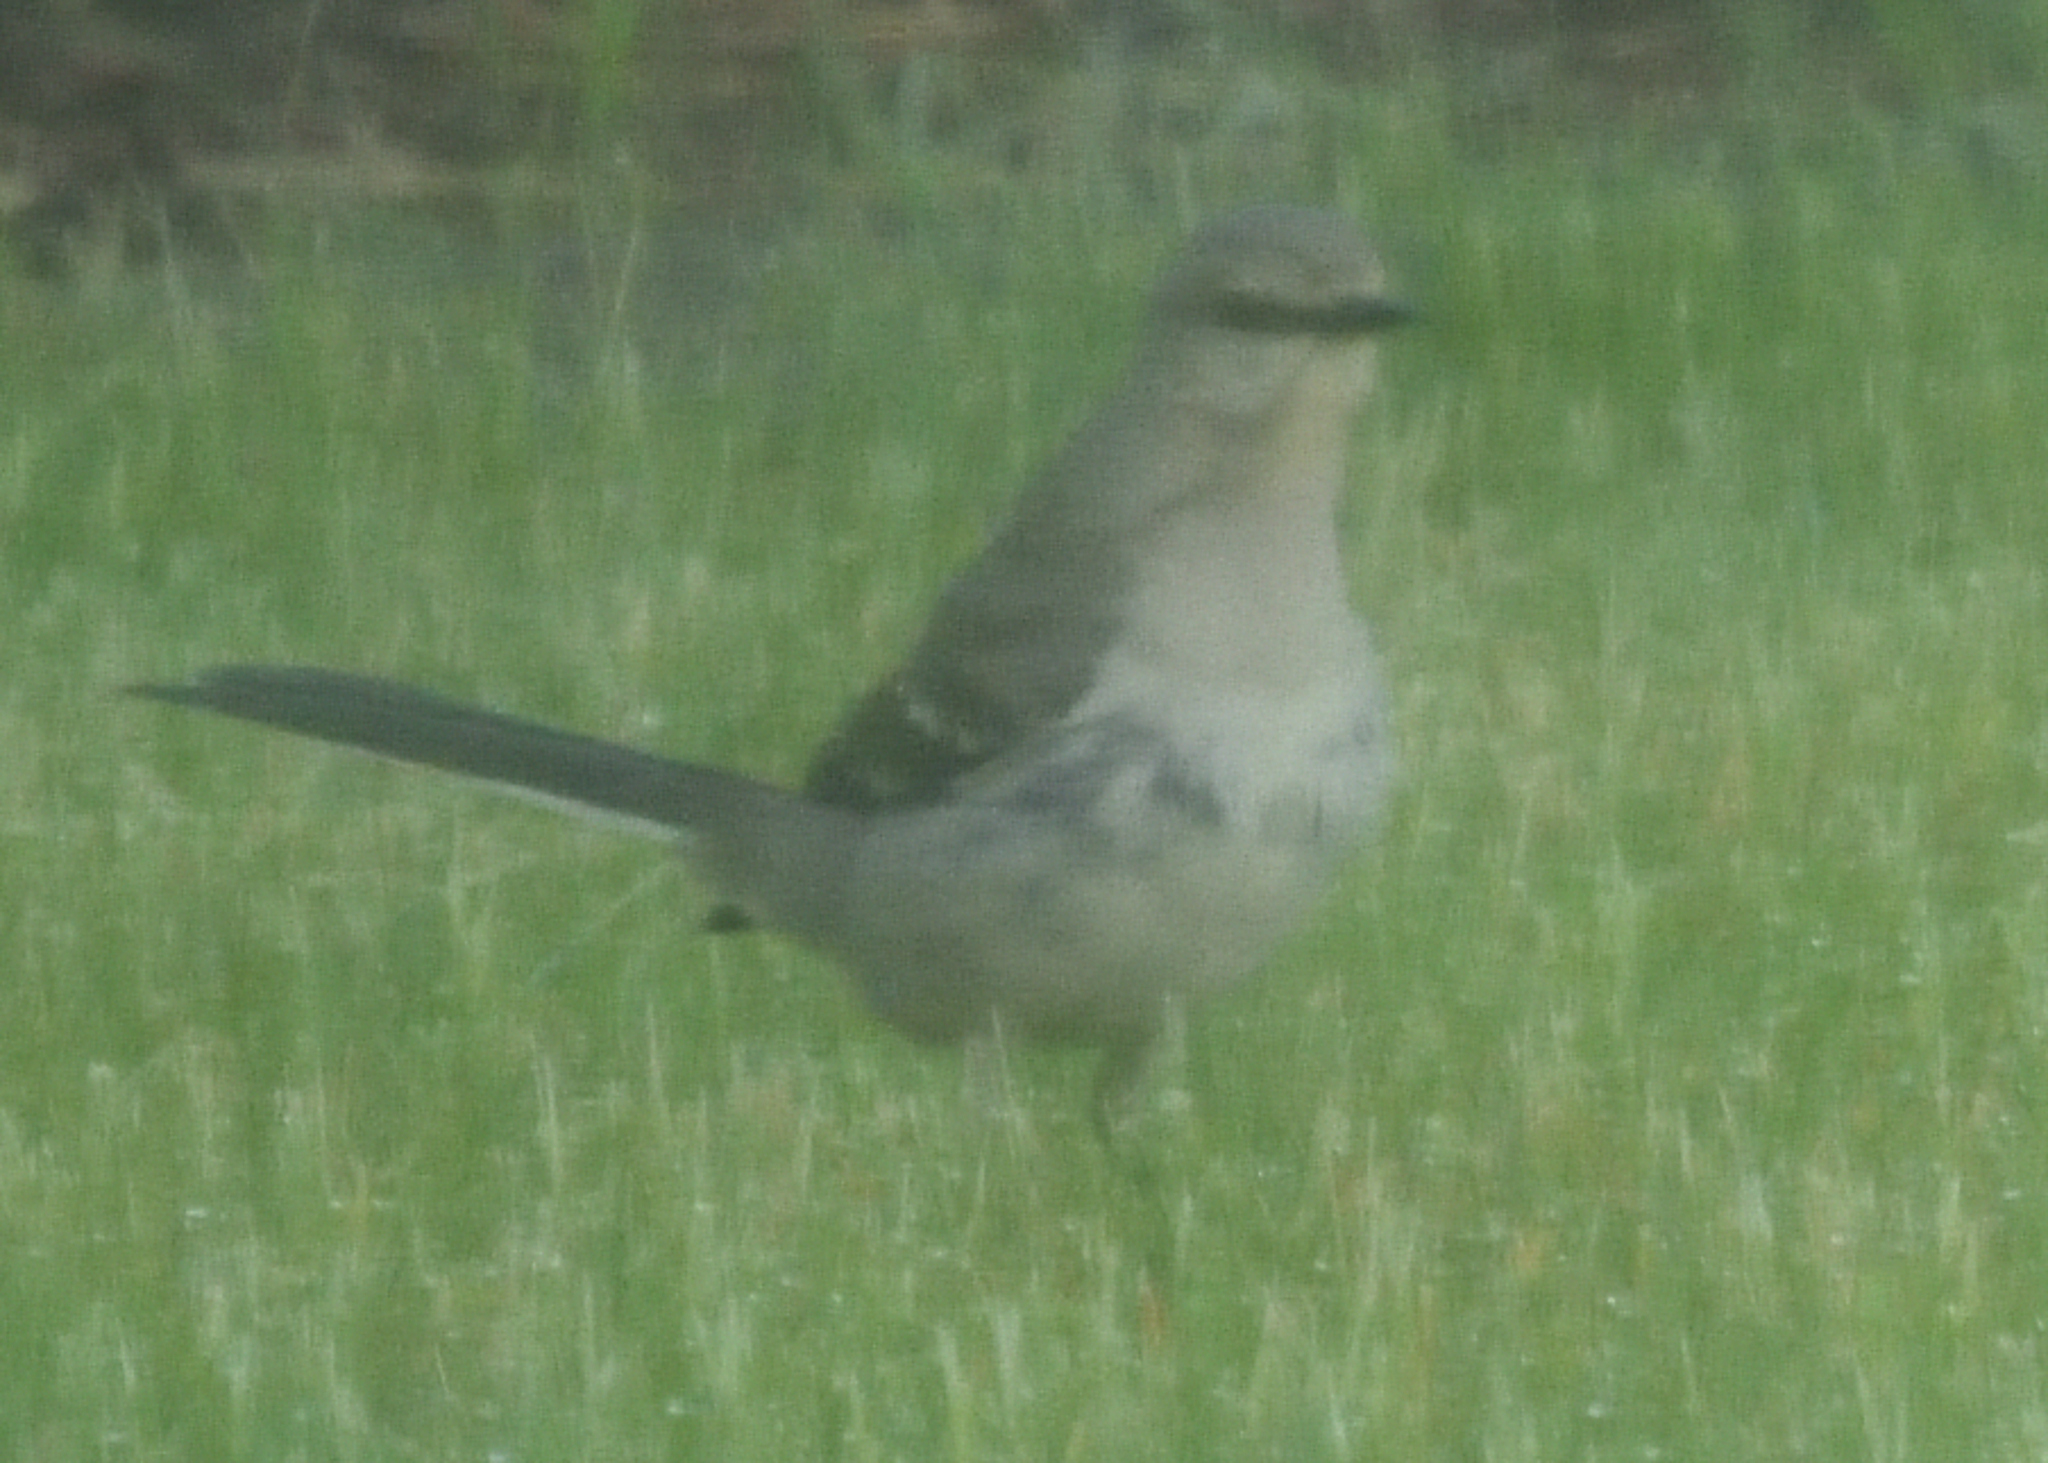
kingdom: Animalia
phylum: Chordata
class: Aves
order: Passeriformes
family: Mimidae
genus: Mimus
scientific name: Mimus polyglottos
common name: Northern mockingbird
